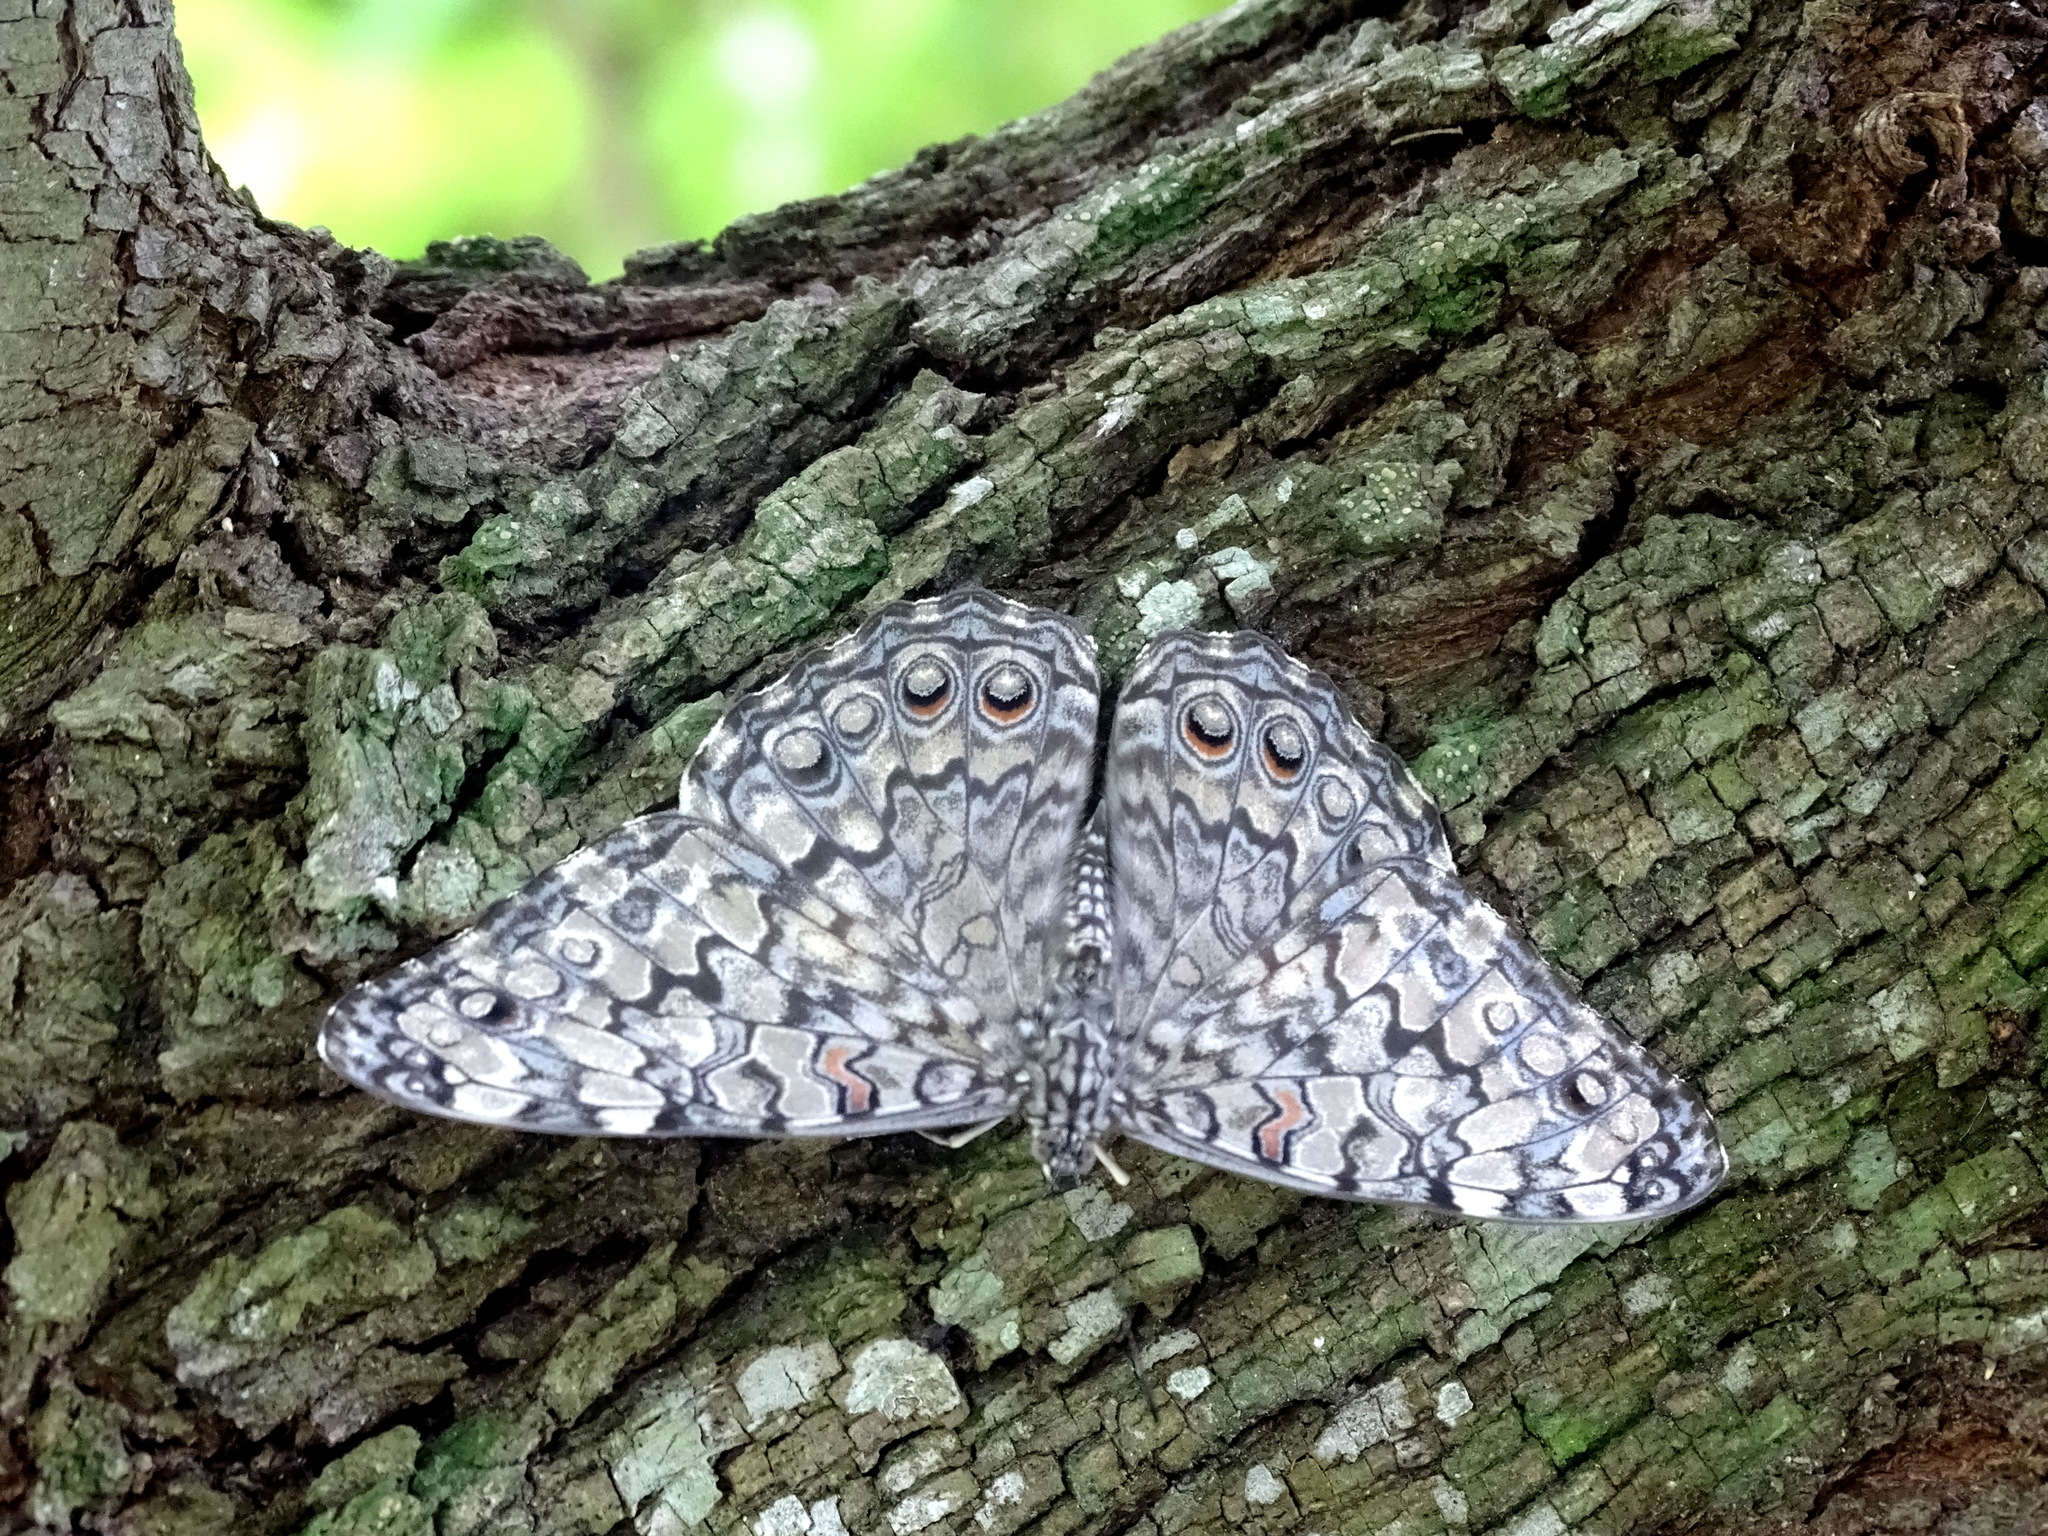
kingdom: Animalia
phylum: Arthropoda
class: Insecta
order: Lepidoptera
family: Nymphalidae
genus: Hamadryas
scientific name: Hamadryas februa
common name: Gray cracker
